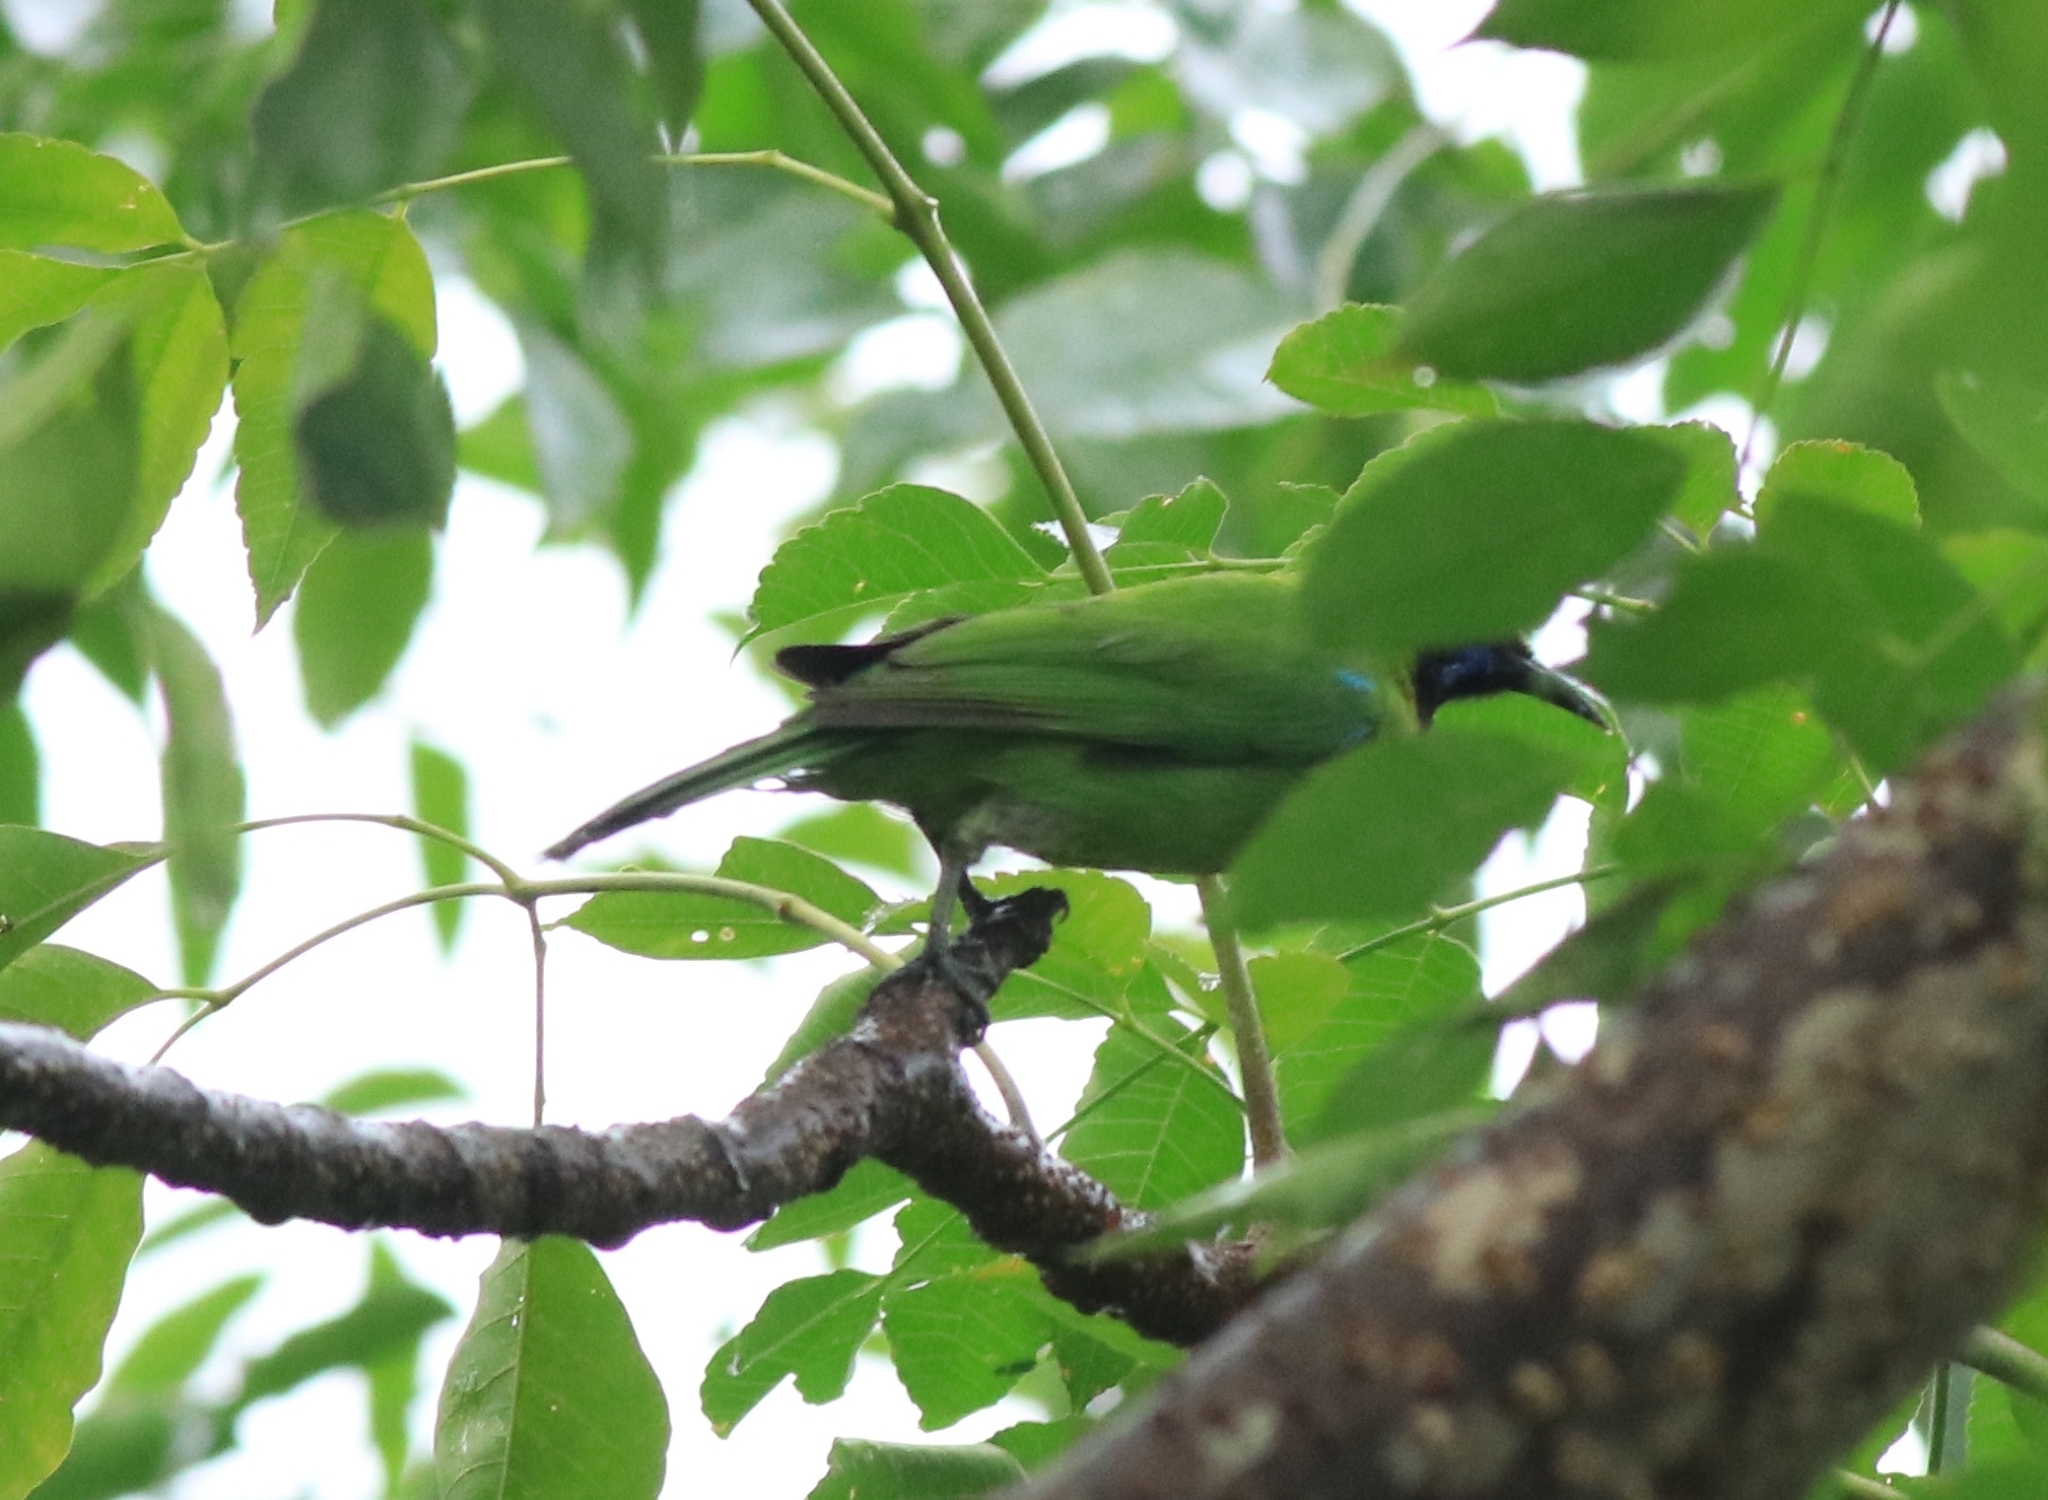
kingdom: Animalia
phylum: Chordata
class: Aves
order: Passeriformes
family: Chloropseidae
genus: Chloropsis
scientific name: Chloropsis aurifrons
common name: Golden-fronted leafbird
